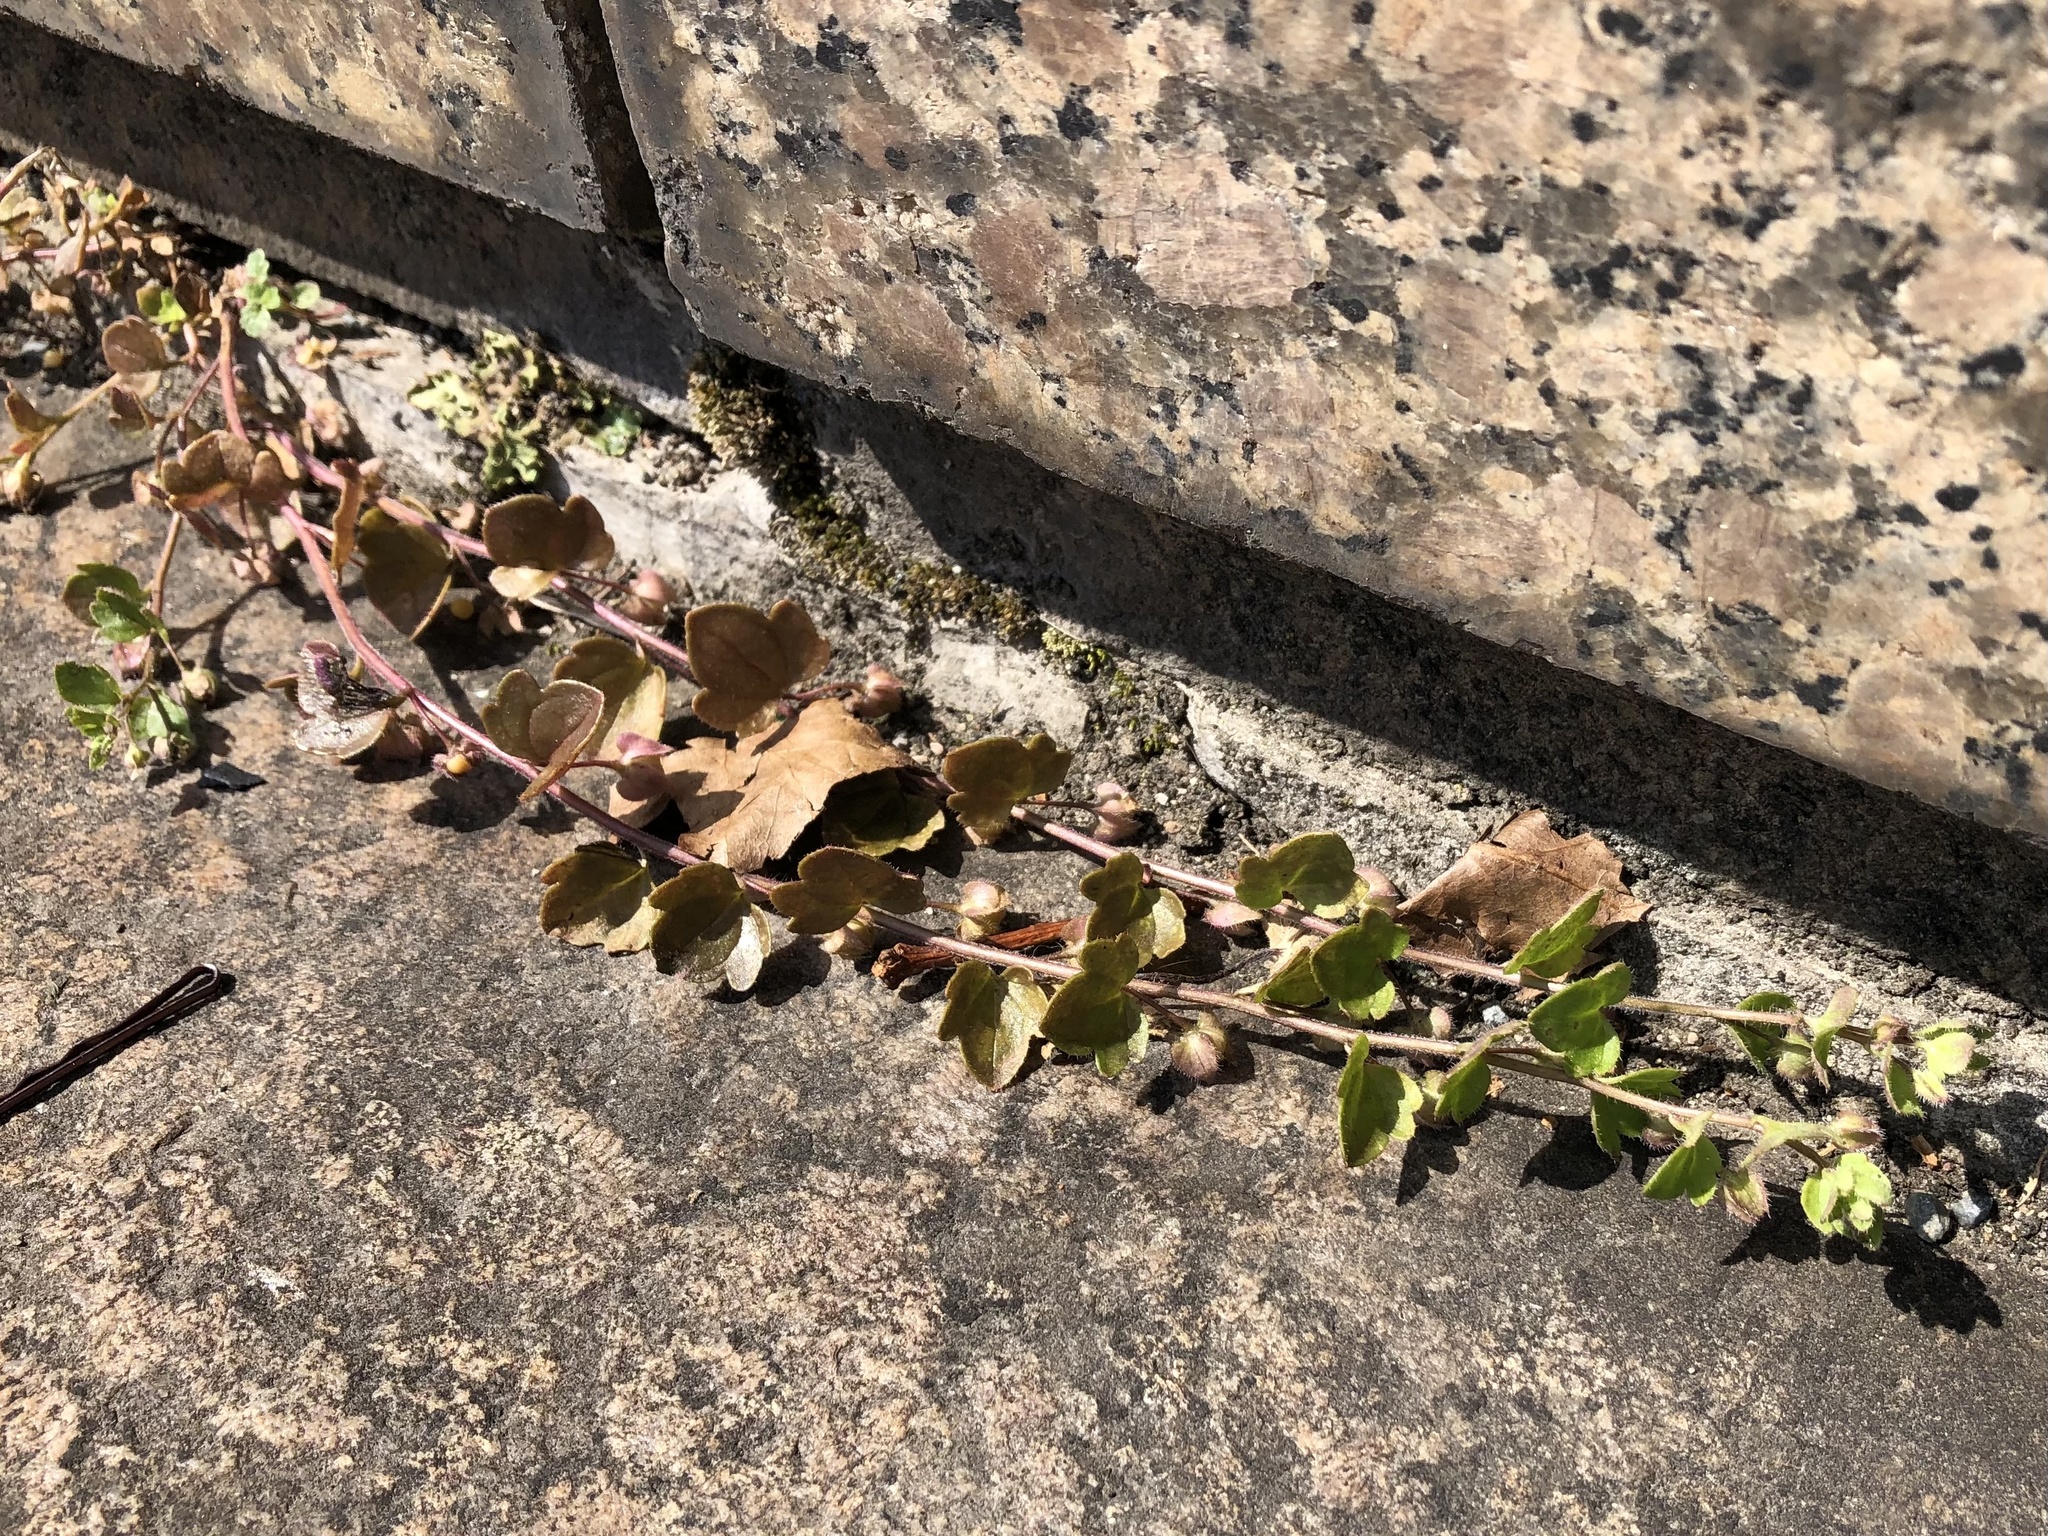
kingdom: Plantae
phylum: Tracheophyta
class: Magnoliopsida
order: Lamiales
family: Plantaginaceae
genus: Veronica
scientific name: Veronica sublobata
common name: False ivy-leaved speedwell
